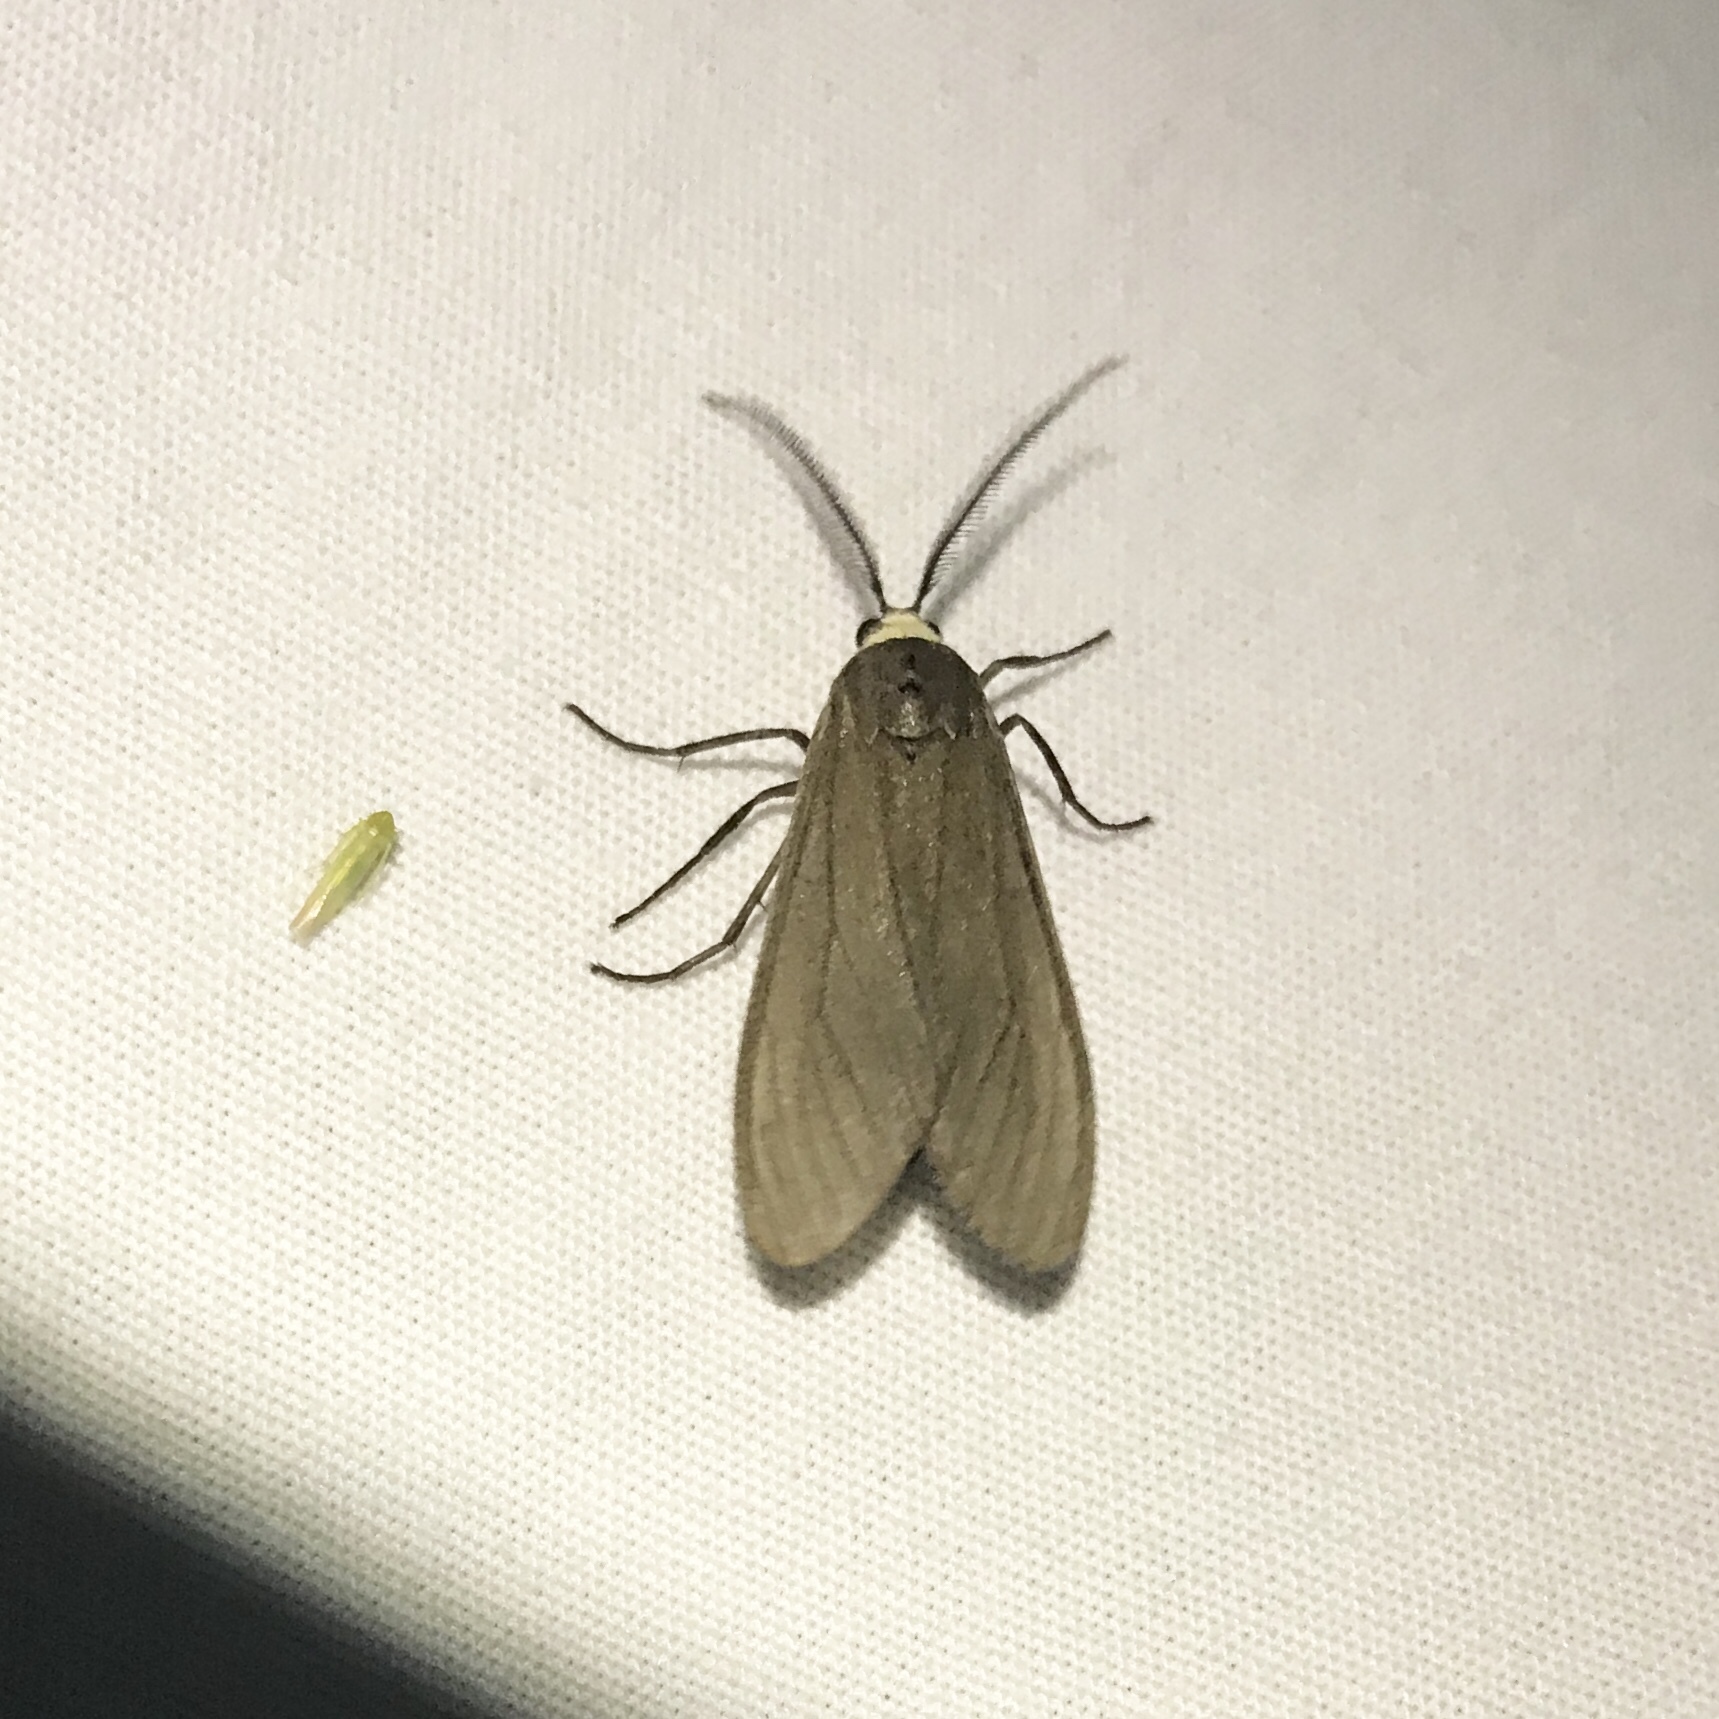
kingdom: Animalia
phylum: Arthropoda
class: Insecta
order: Lepidoptera
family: Erebidae
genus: Cisseps
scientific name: Cisseps fulvicollis
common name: Yellow-collared scape moth
